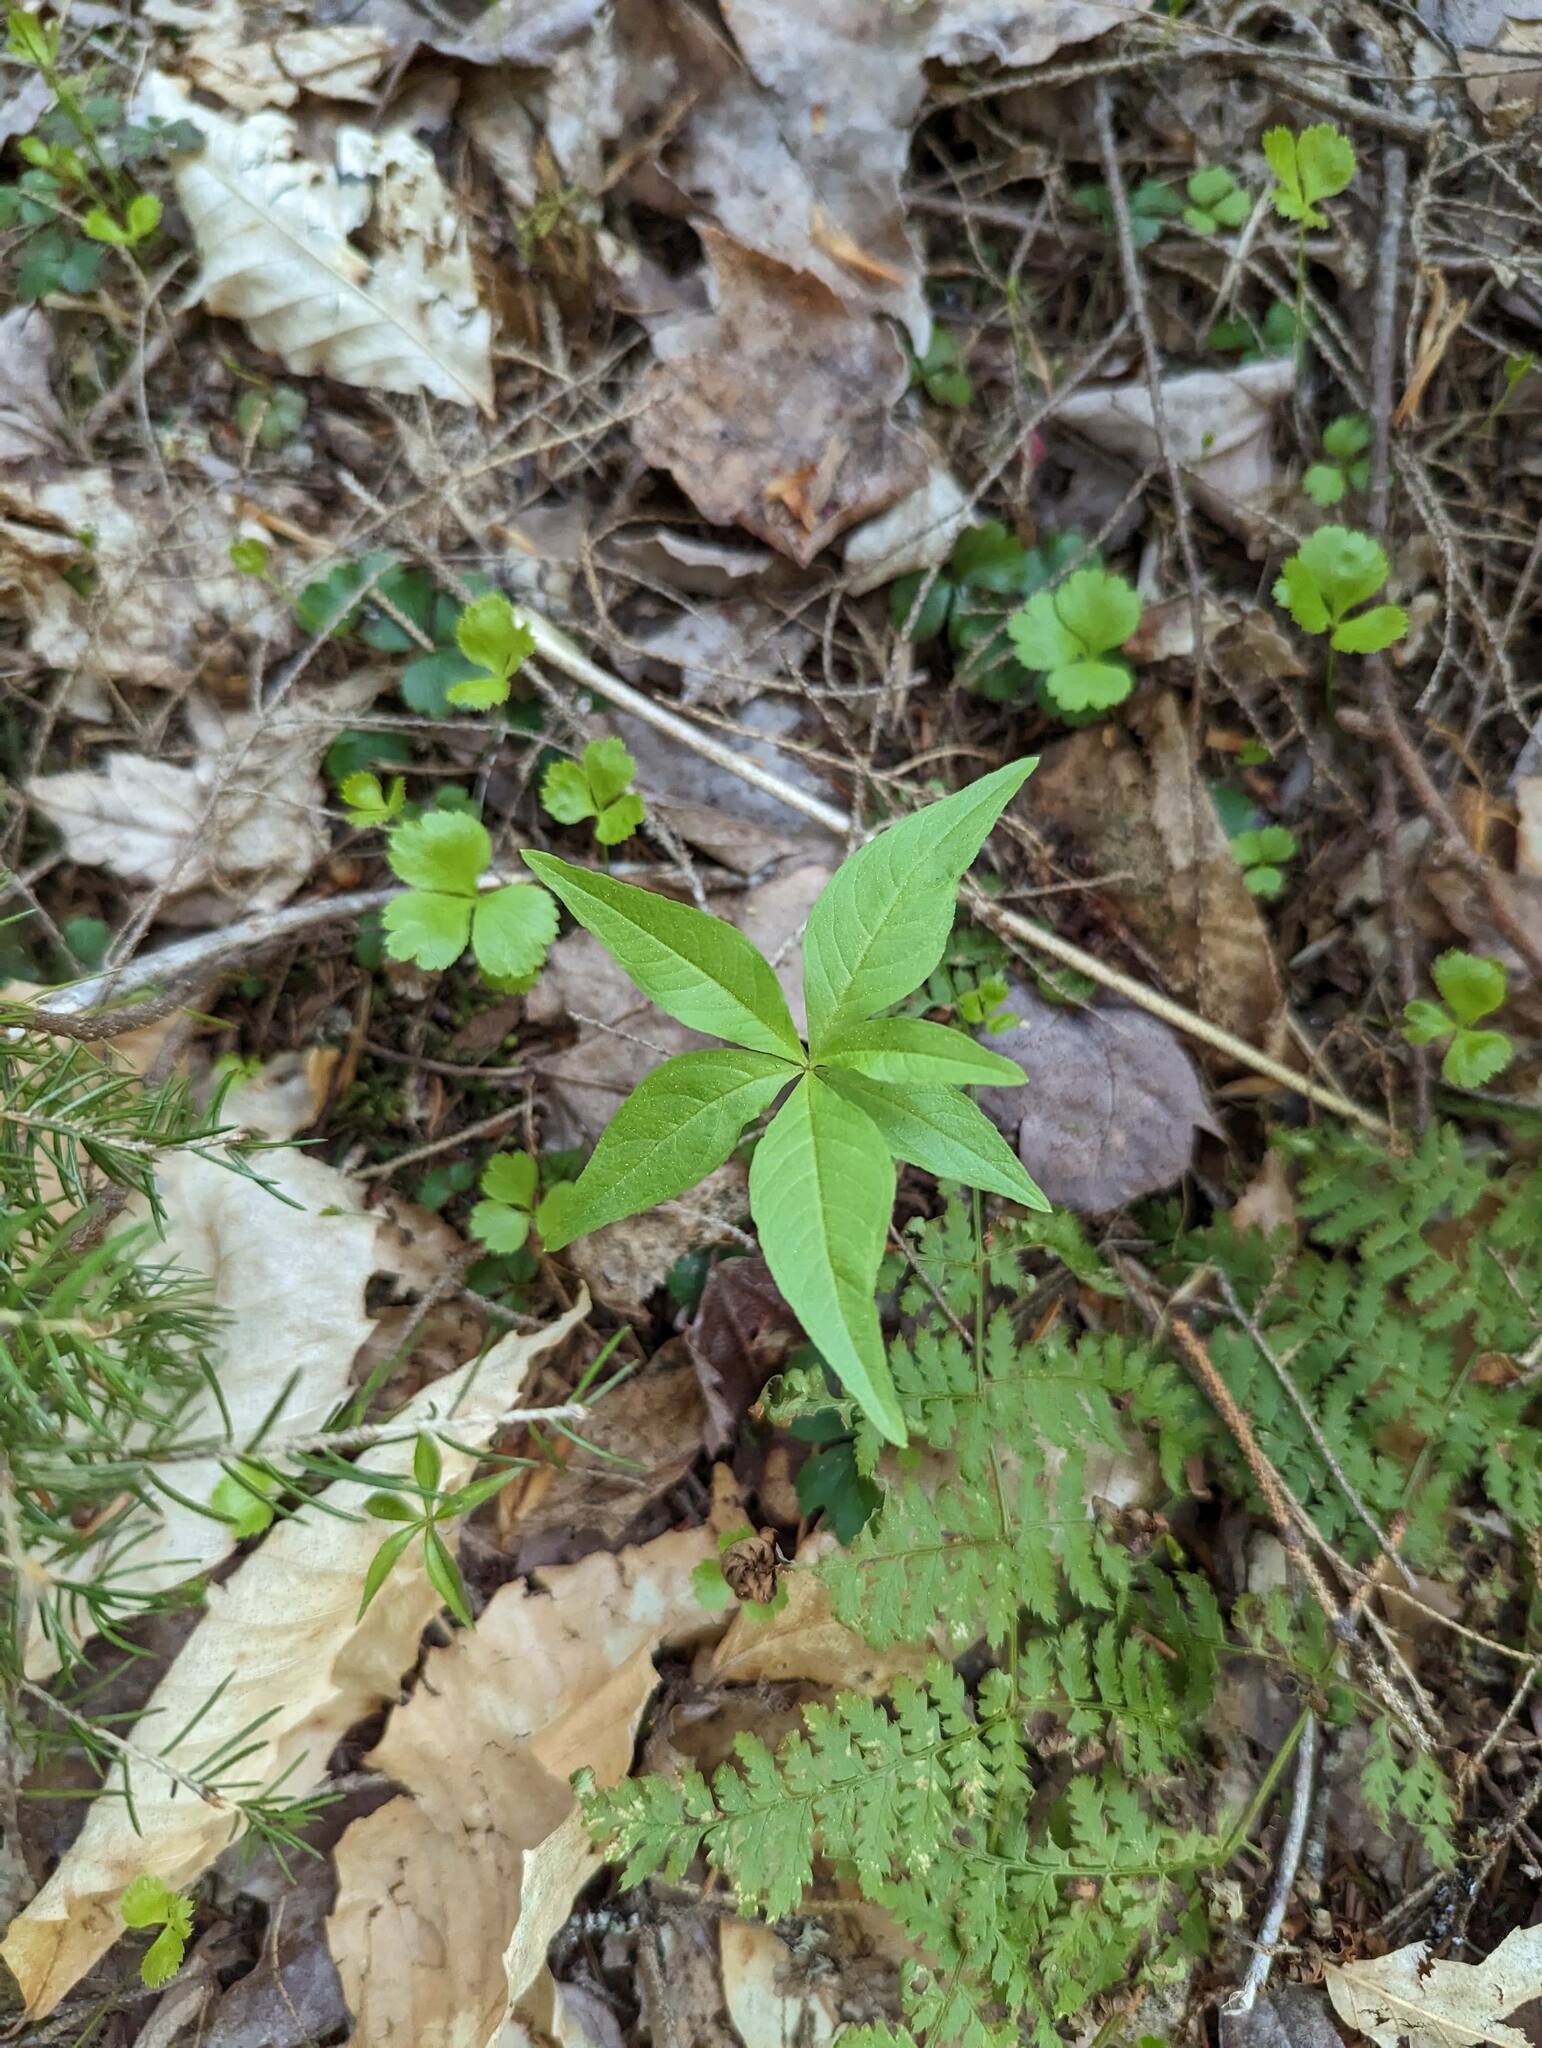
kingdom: Plantae
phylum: Tracheophyta
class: Magnoliopsida
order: Ericales
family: Primulaceae
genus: Lysimachia
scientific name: Lysimachia borealis
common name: American starflower
